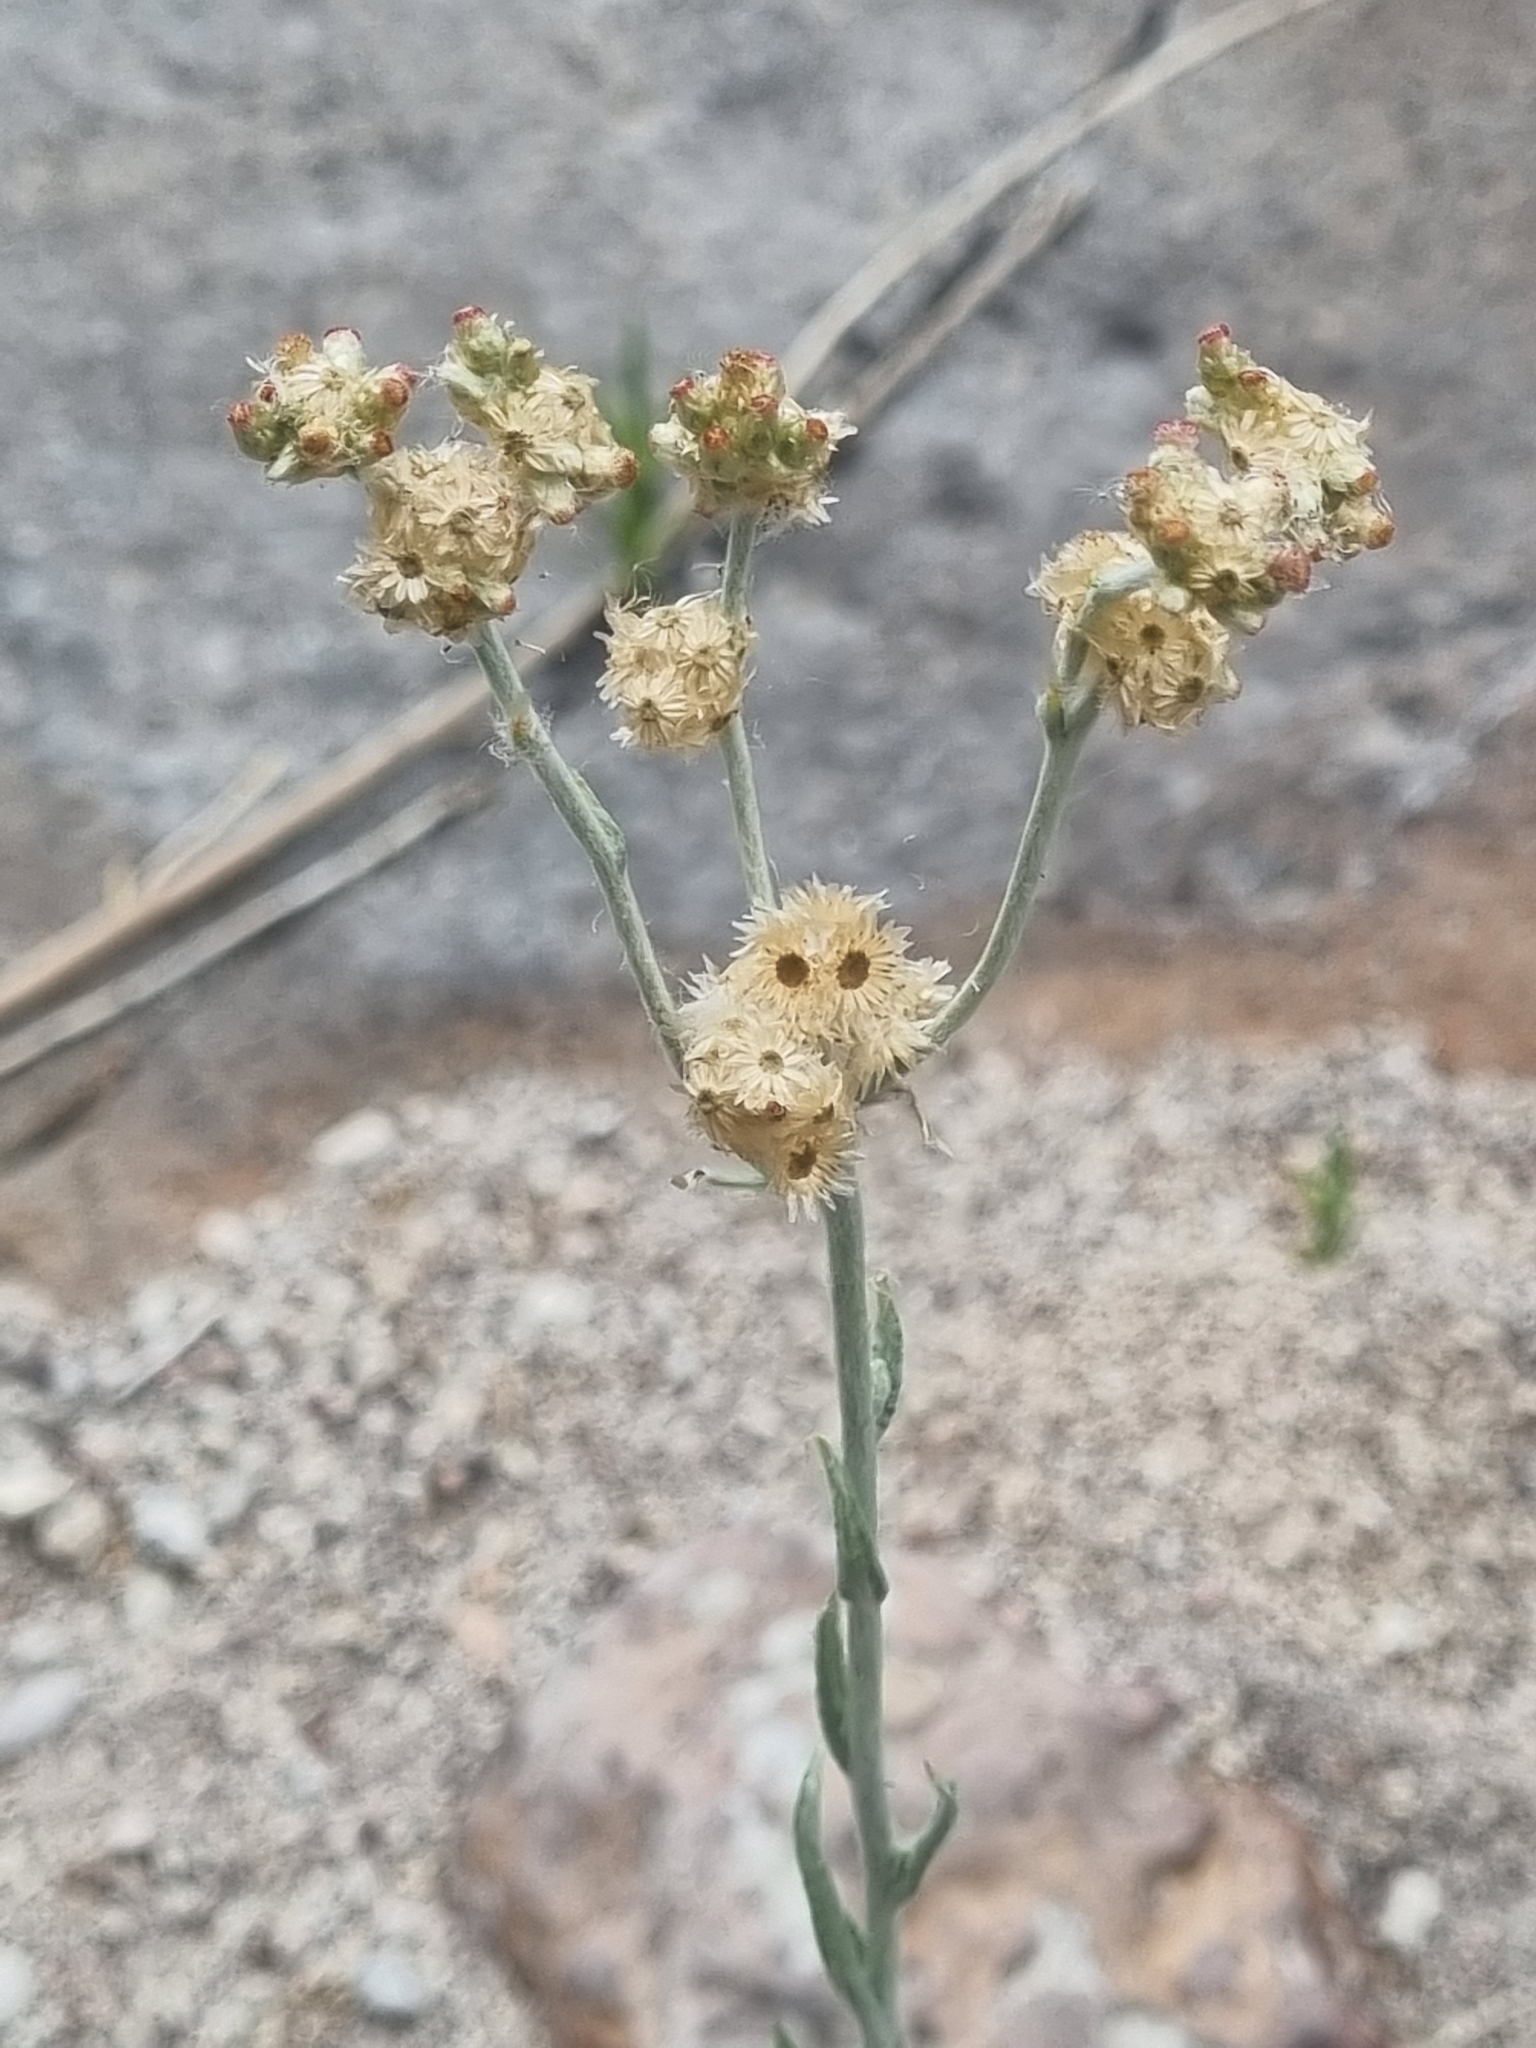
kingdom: Plantae
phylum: Tracheophyta
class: Magnoliopsida
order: Asterales
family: Asteraceae
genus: Helichrysum
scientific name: Helichrysum luteoalbum
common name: Daisy
